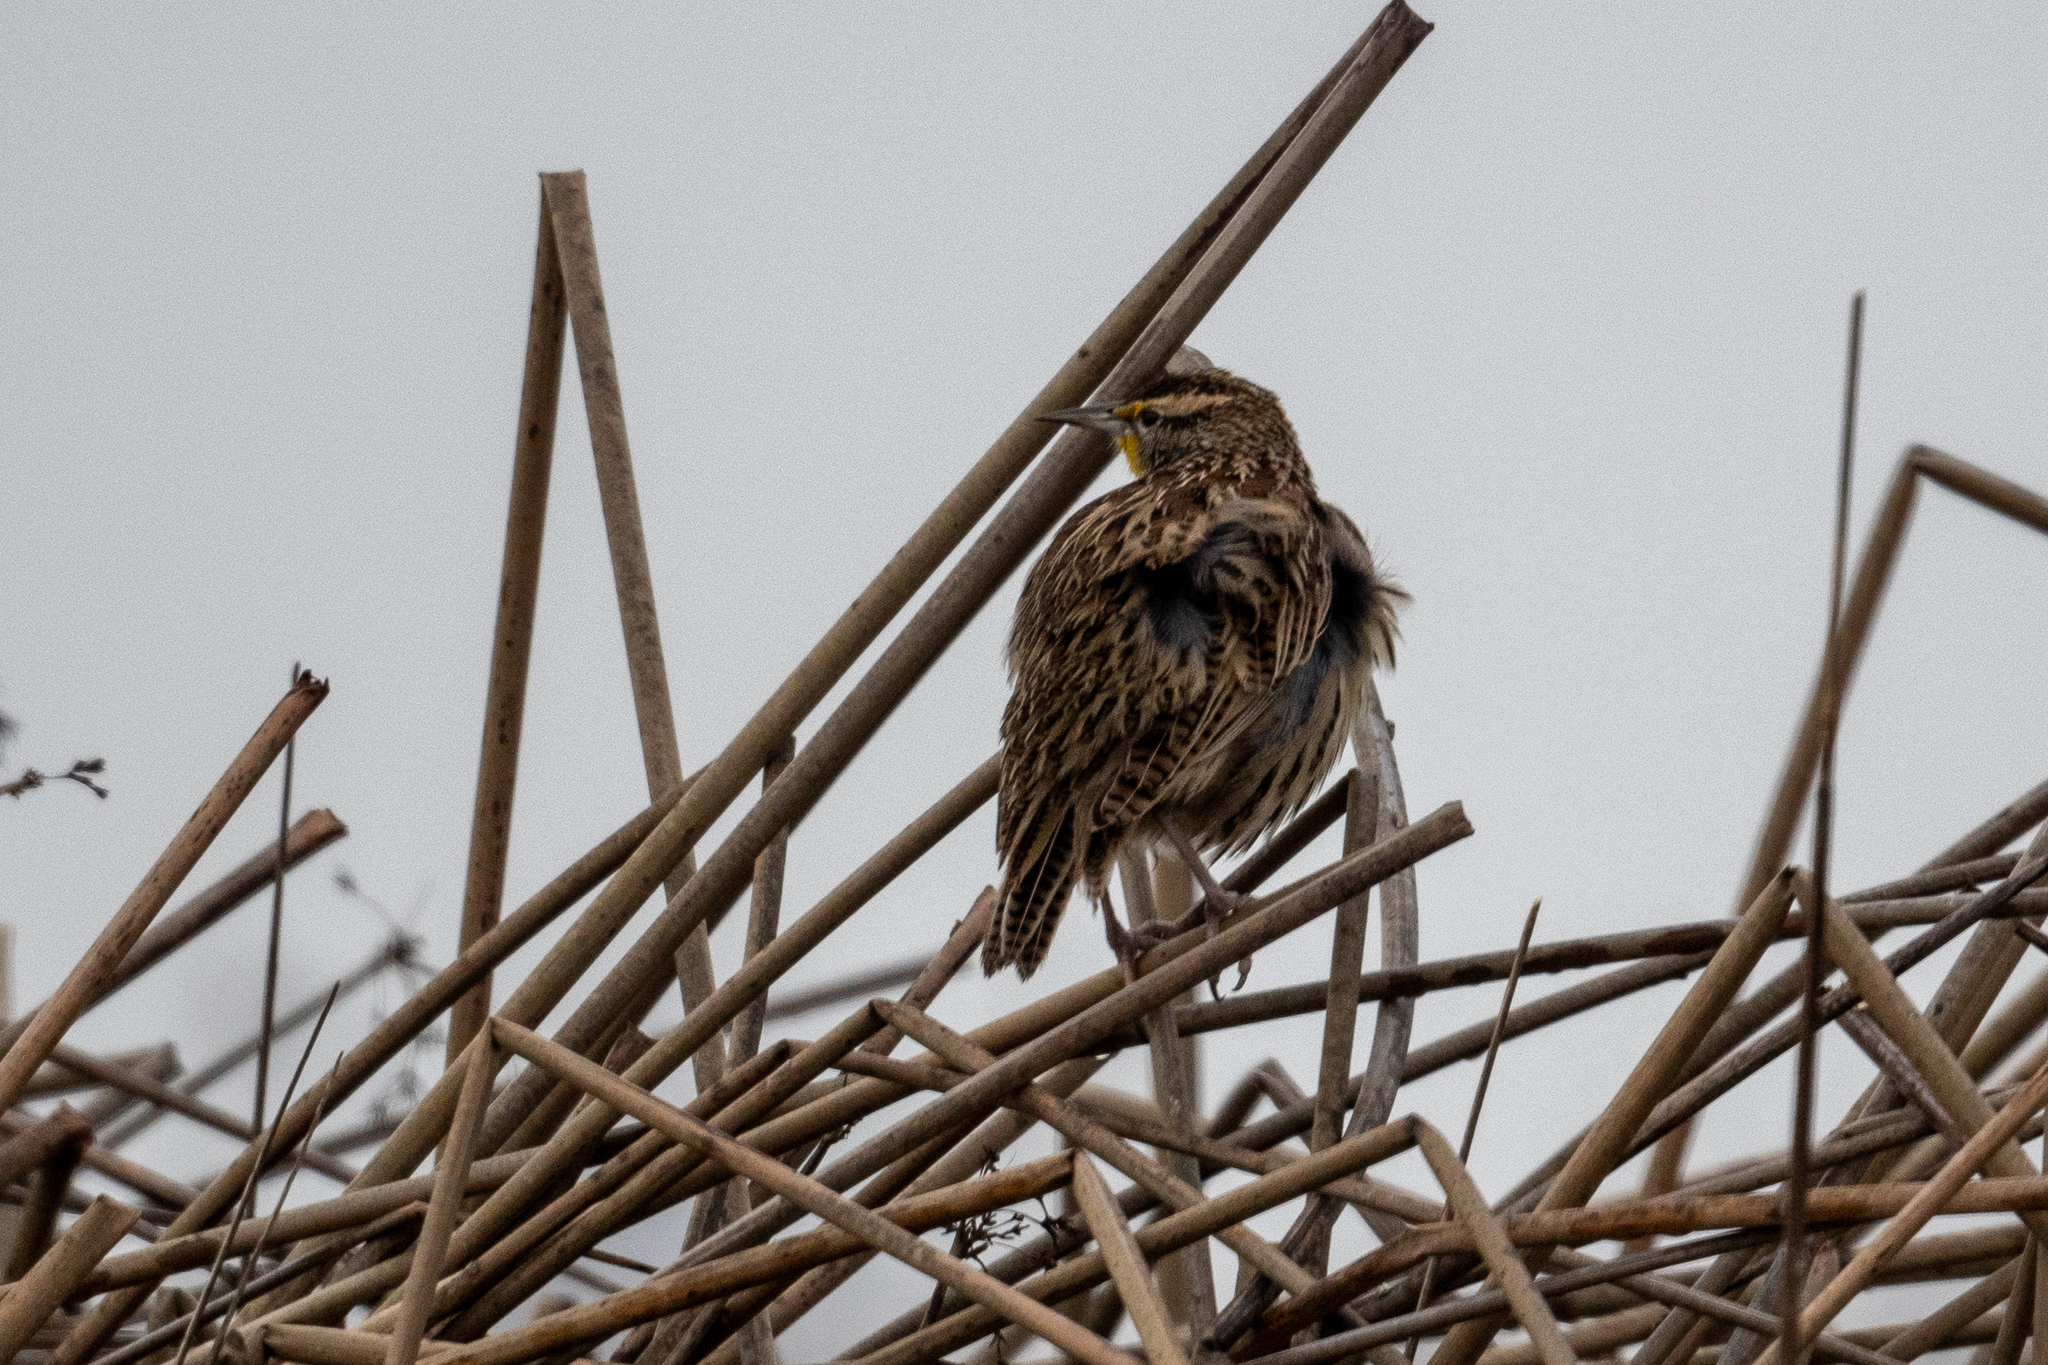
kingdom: Animalia
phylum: Chordata
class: Aves
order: Passeriformes
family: Icteridae
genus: Sturnella
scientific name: Sturnella neglecta
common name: Western meadowlark
